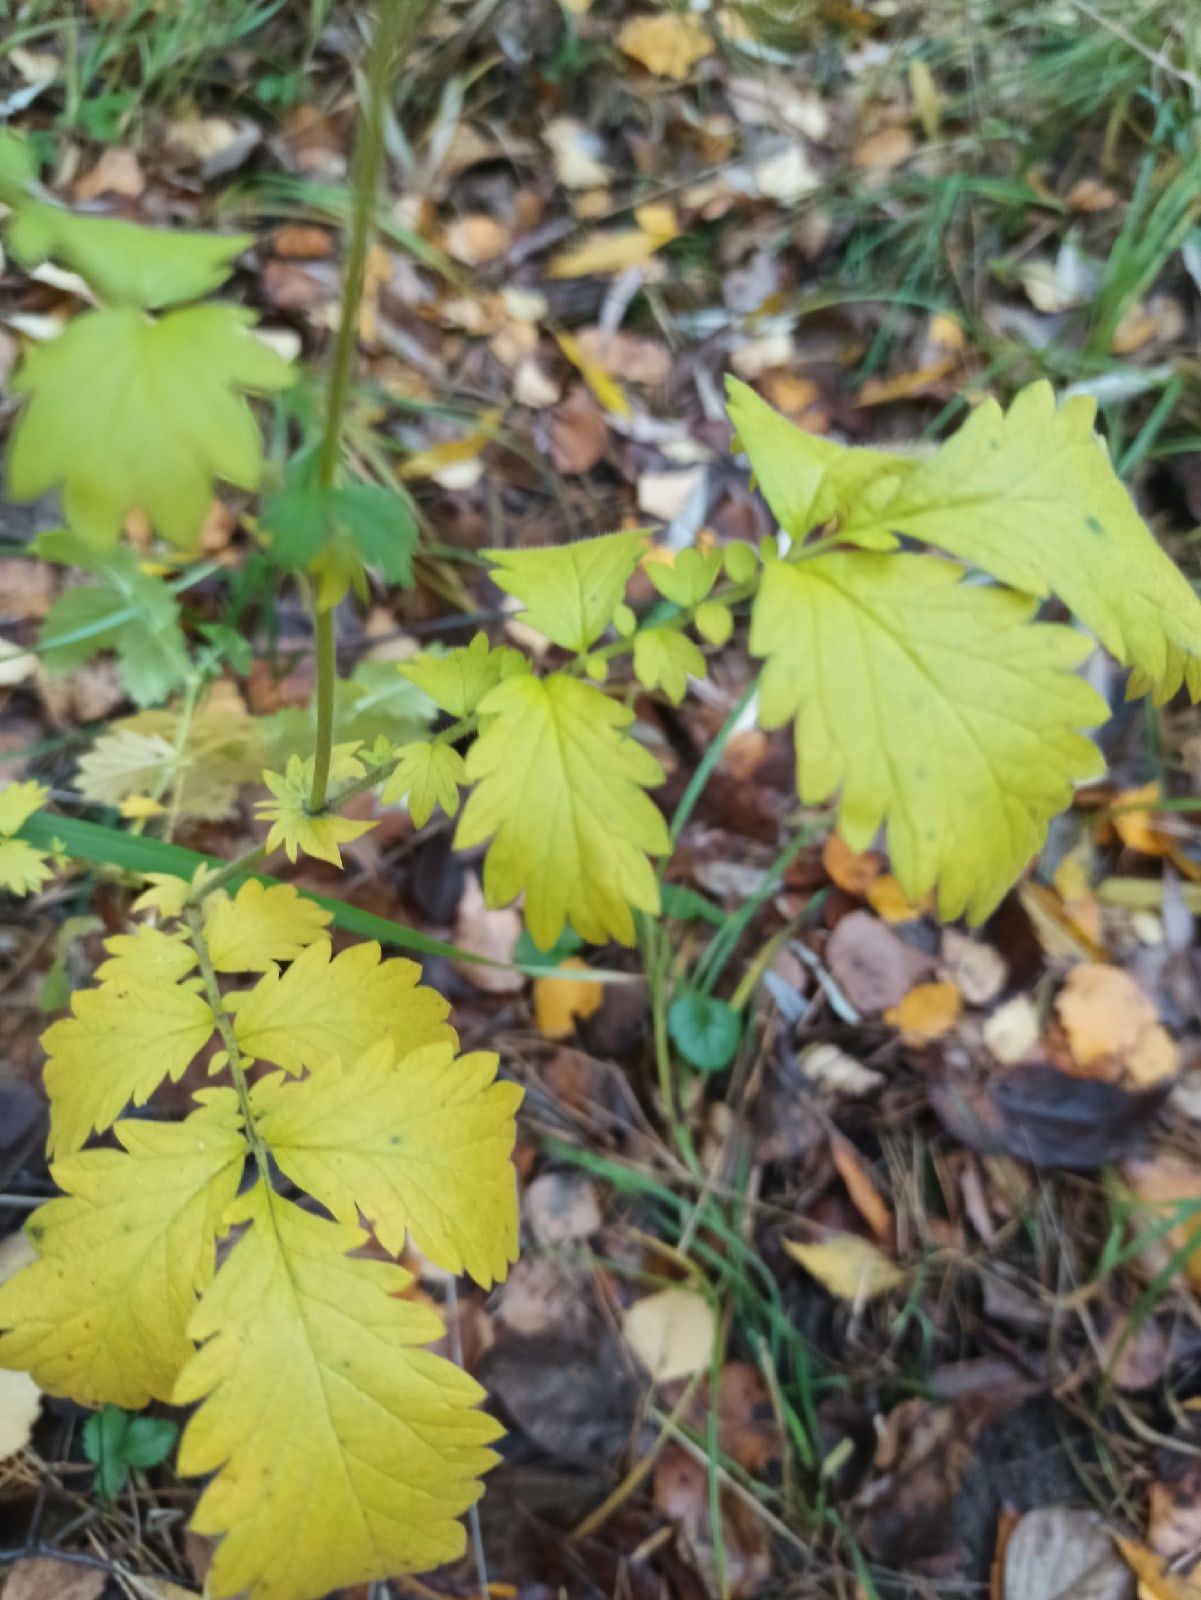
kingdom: Plantae
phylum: Tracheophyta
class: Magnoliopsida
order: Rosales
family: Rosaceae
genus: Agrimonia
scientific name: Agrimonia eupatoria
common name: Agrimony
